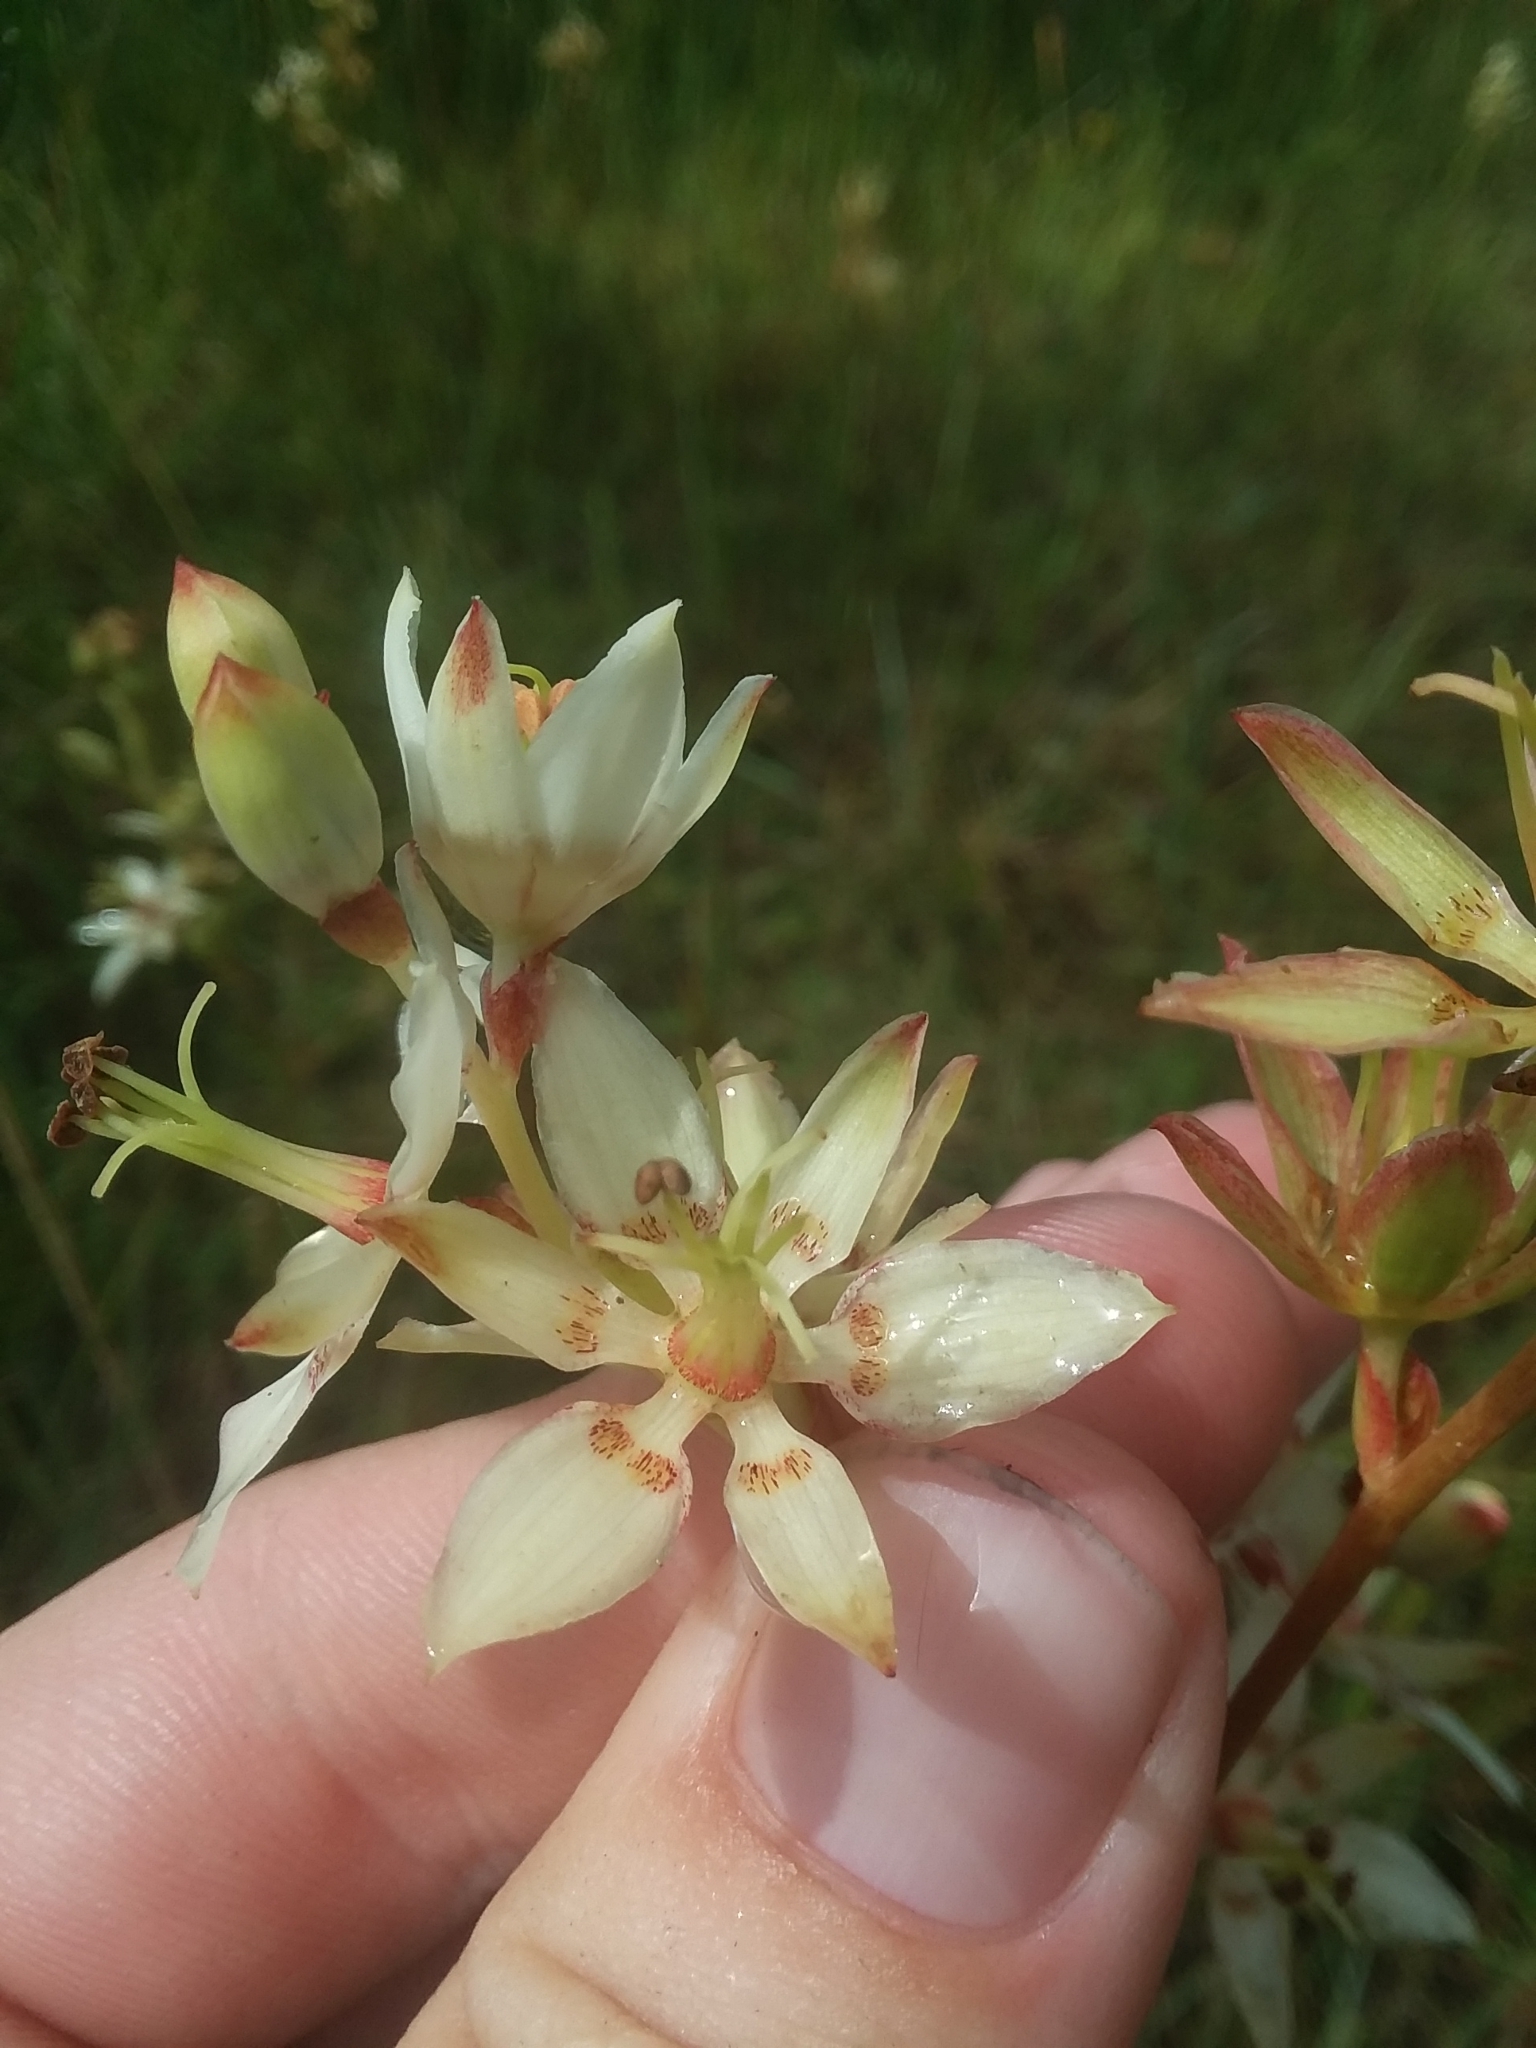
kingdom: Plantae
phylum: Tracheophyta
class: Liliopsida
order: Liliales
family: Melanthiaceae
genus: Zigadenus
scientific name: Zigadenus glaberrimus
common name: Sandbog death camas
